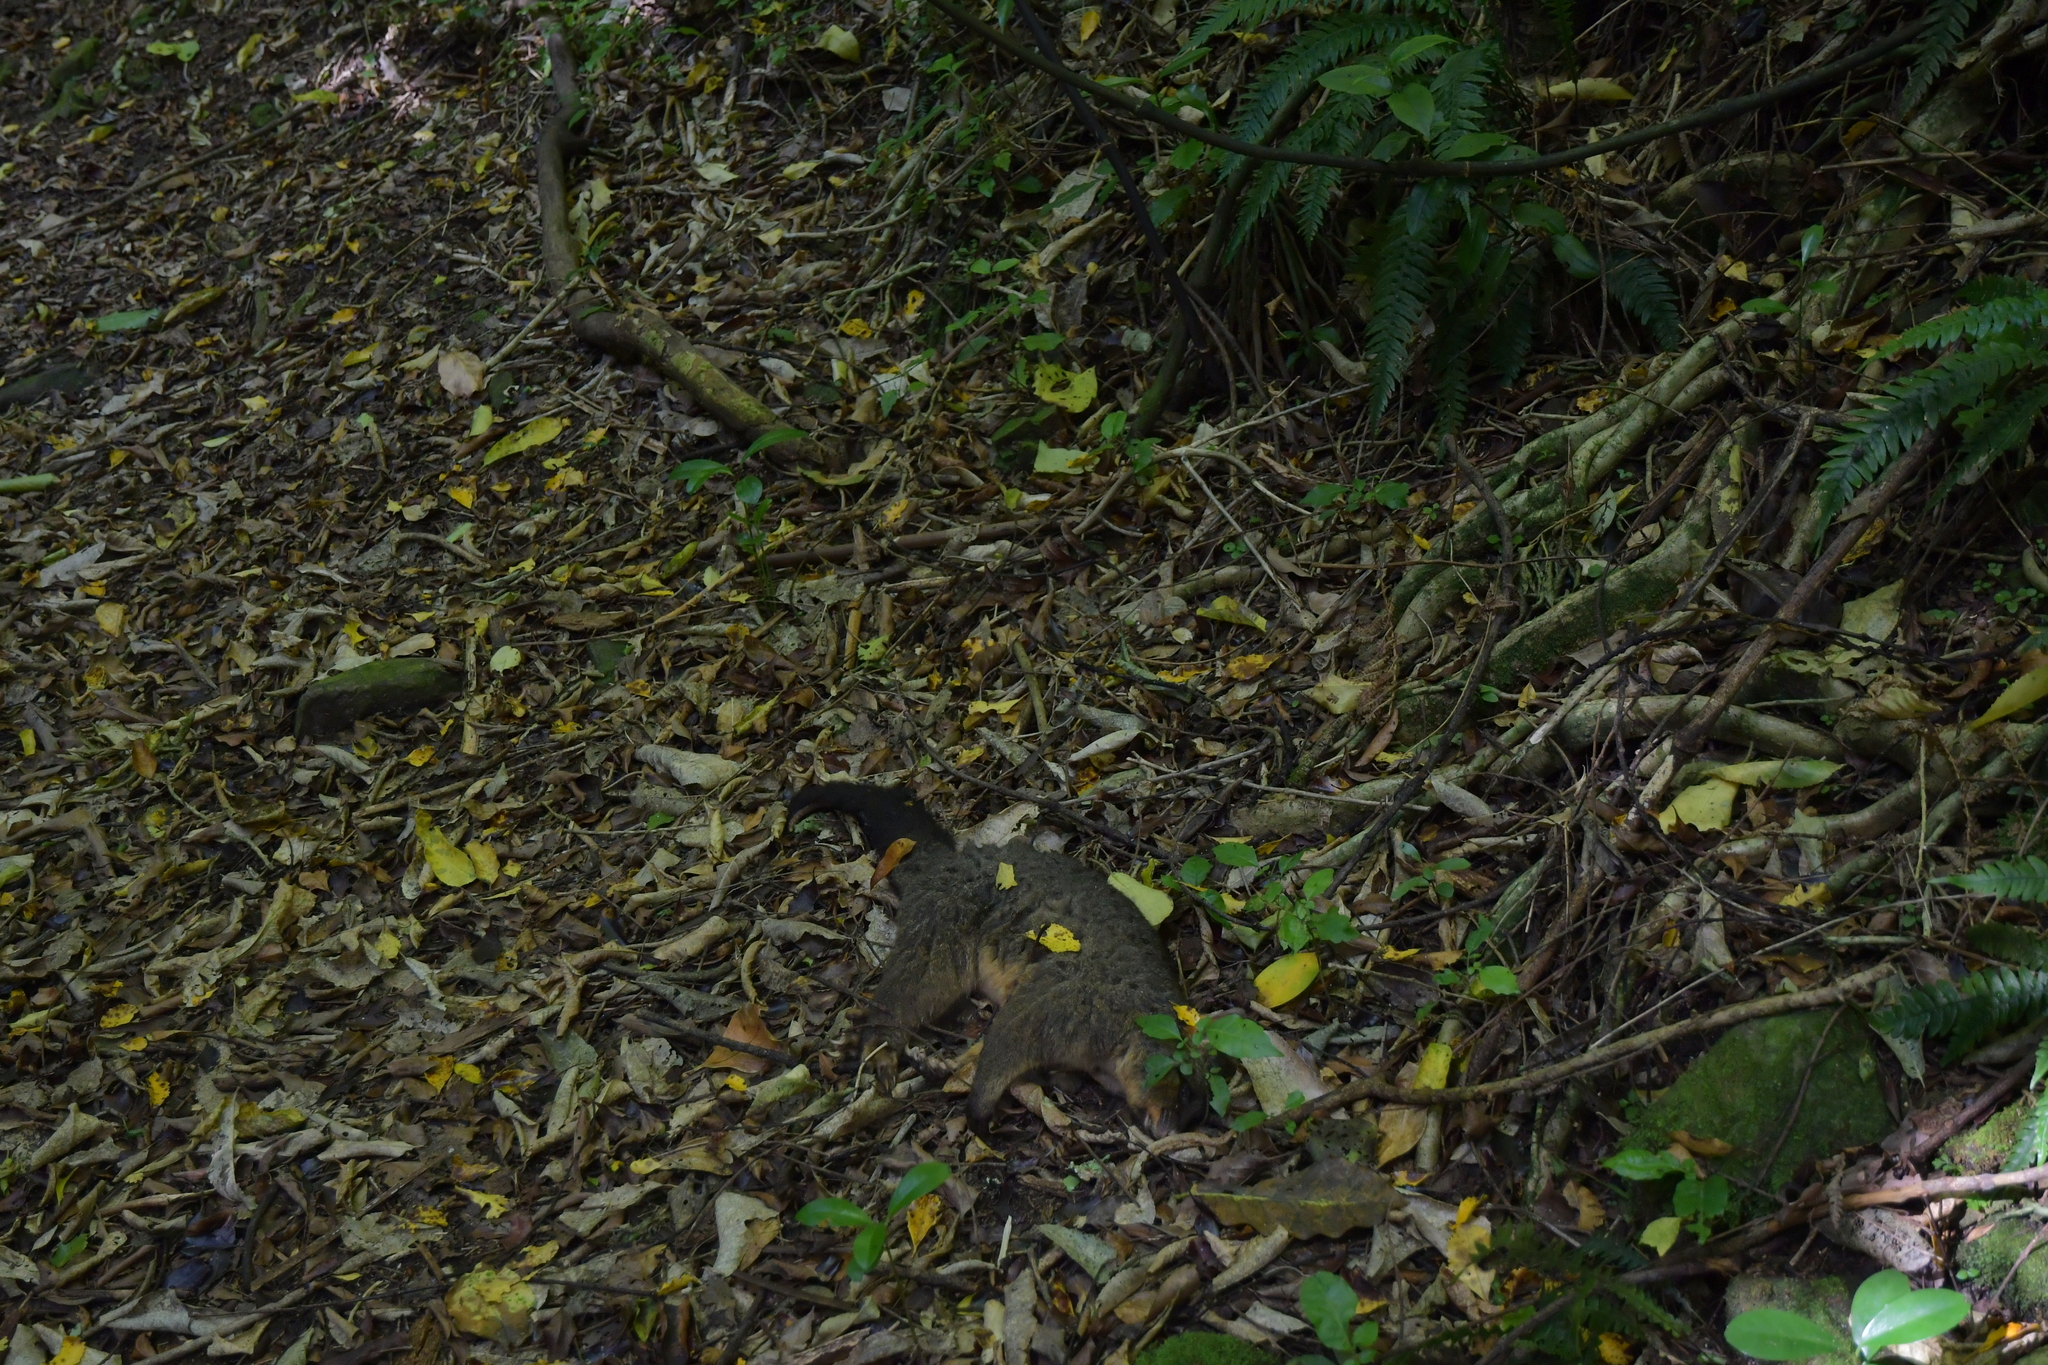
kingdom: Animalia
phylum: Chordata
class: Mammalia
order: Diprotodontia
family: Phalangeridae
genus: Trichosurus
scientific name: Trichosurus vulpecula
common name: Common brushtail
